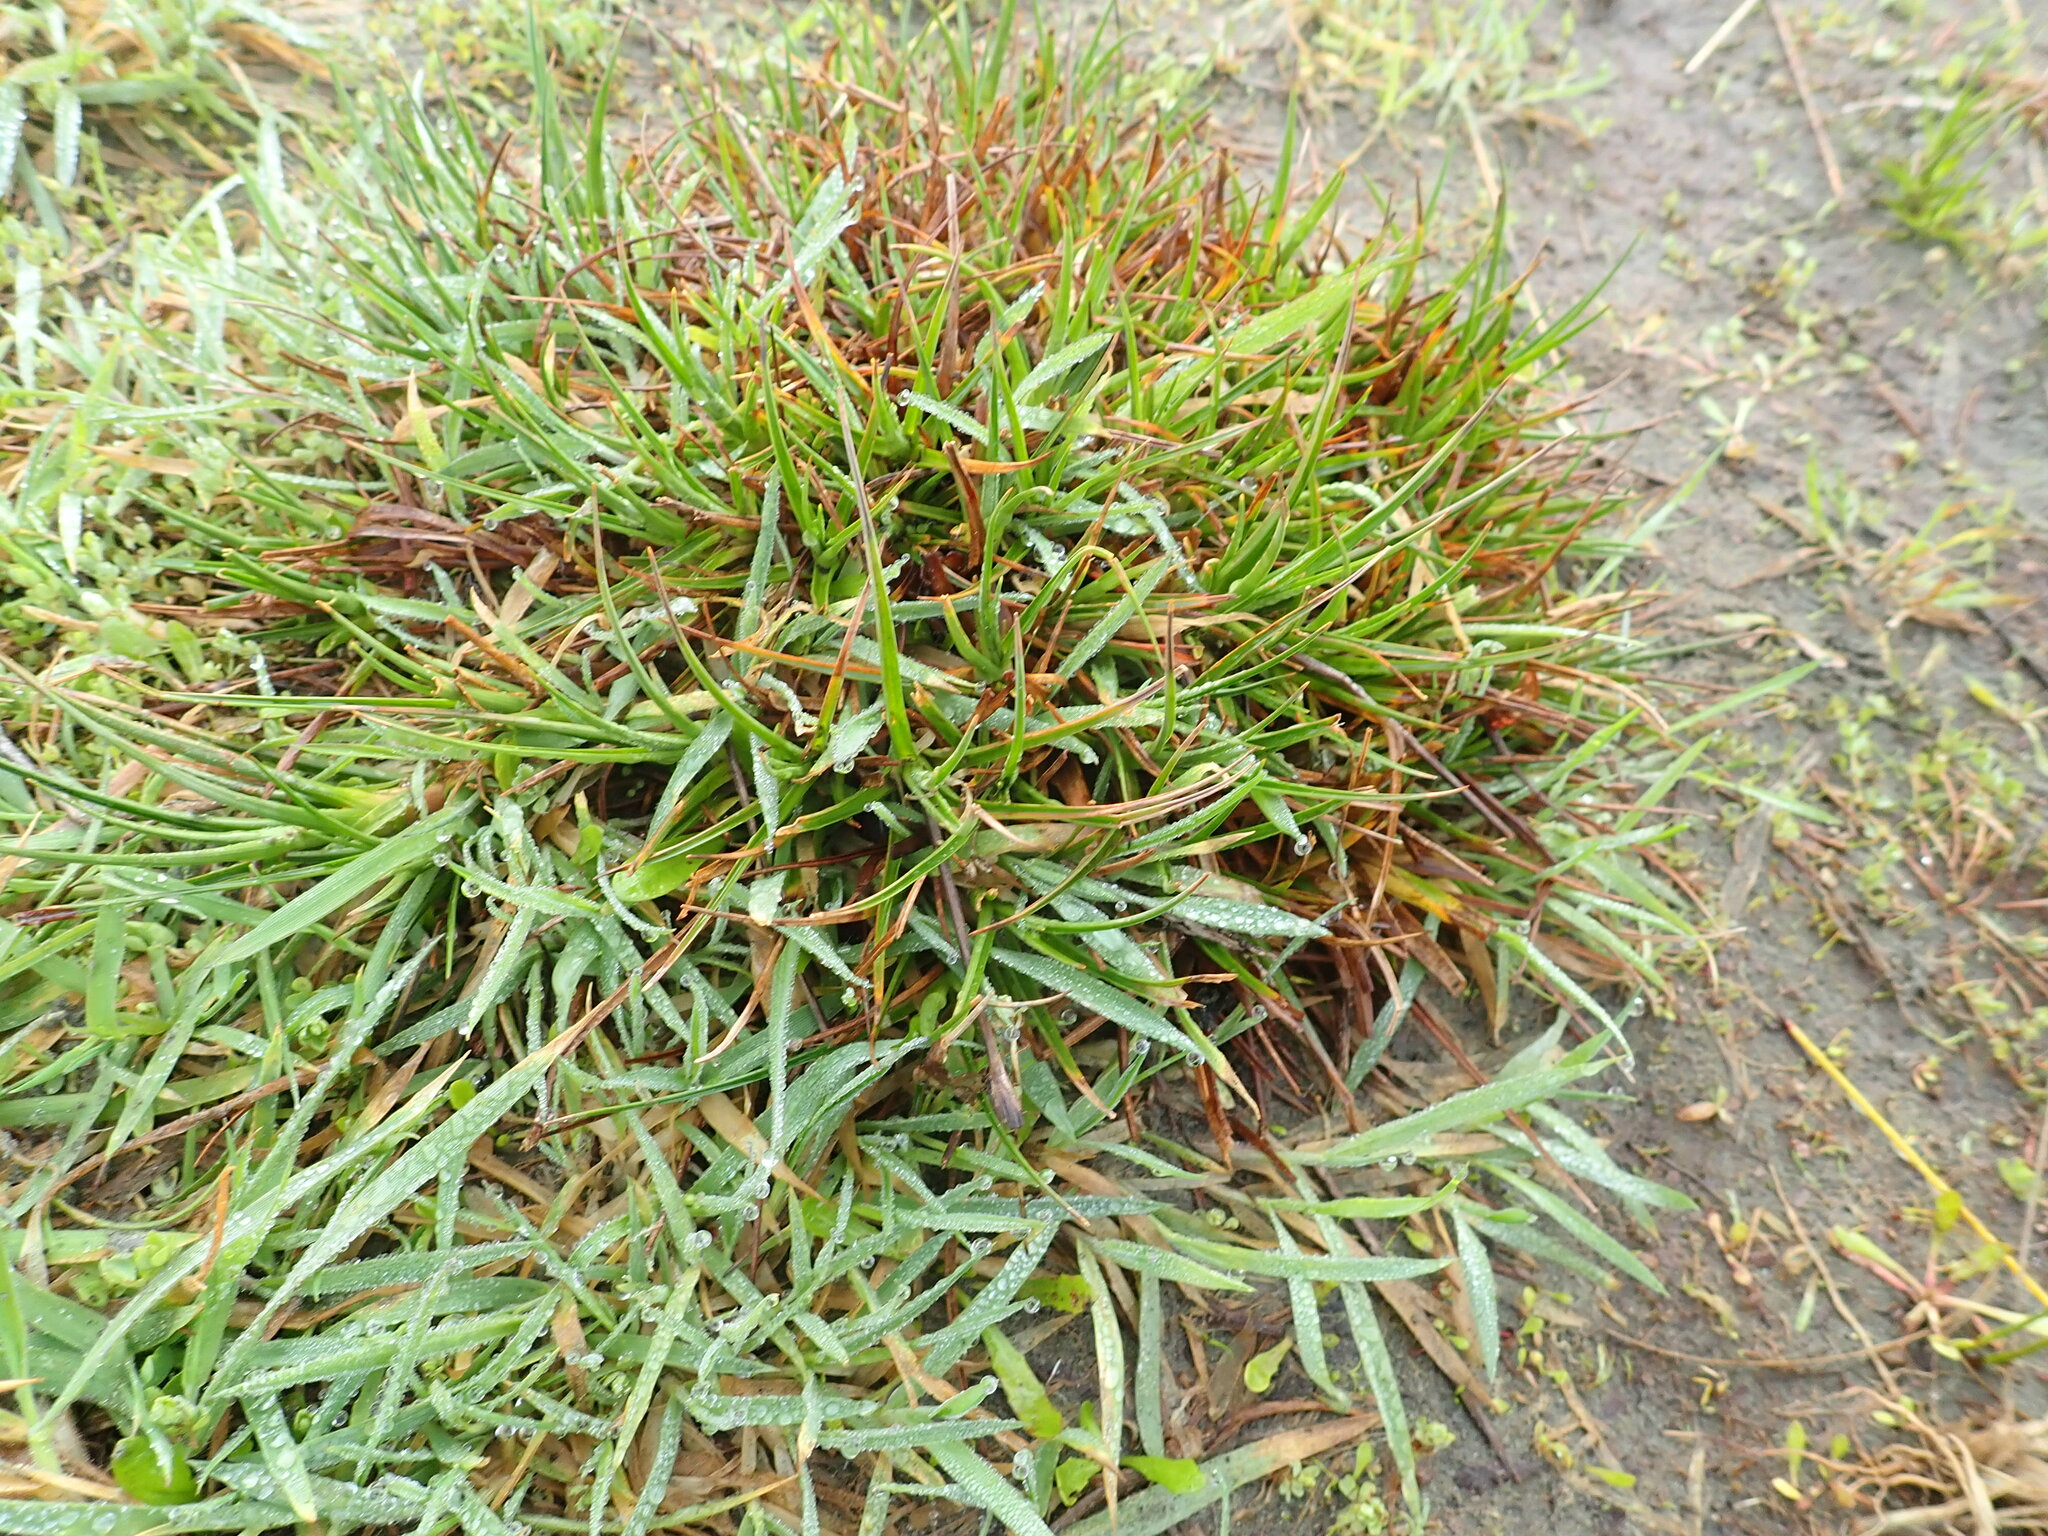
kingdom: Plantae
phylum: Tracheophyta
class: Liliopsida
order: Poales
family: Juncaceae
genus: Juncus
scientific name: Juncus caespiticius
